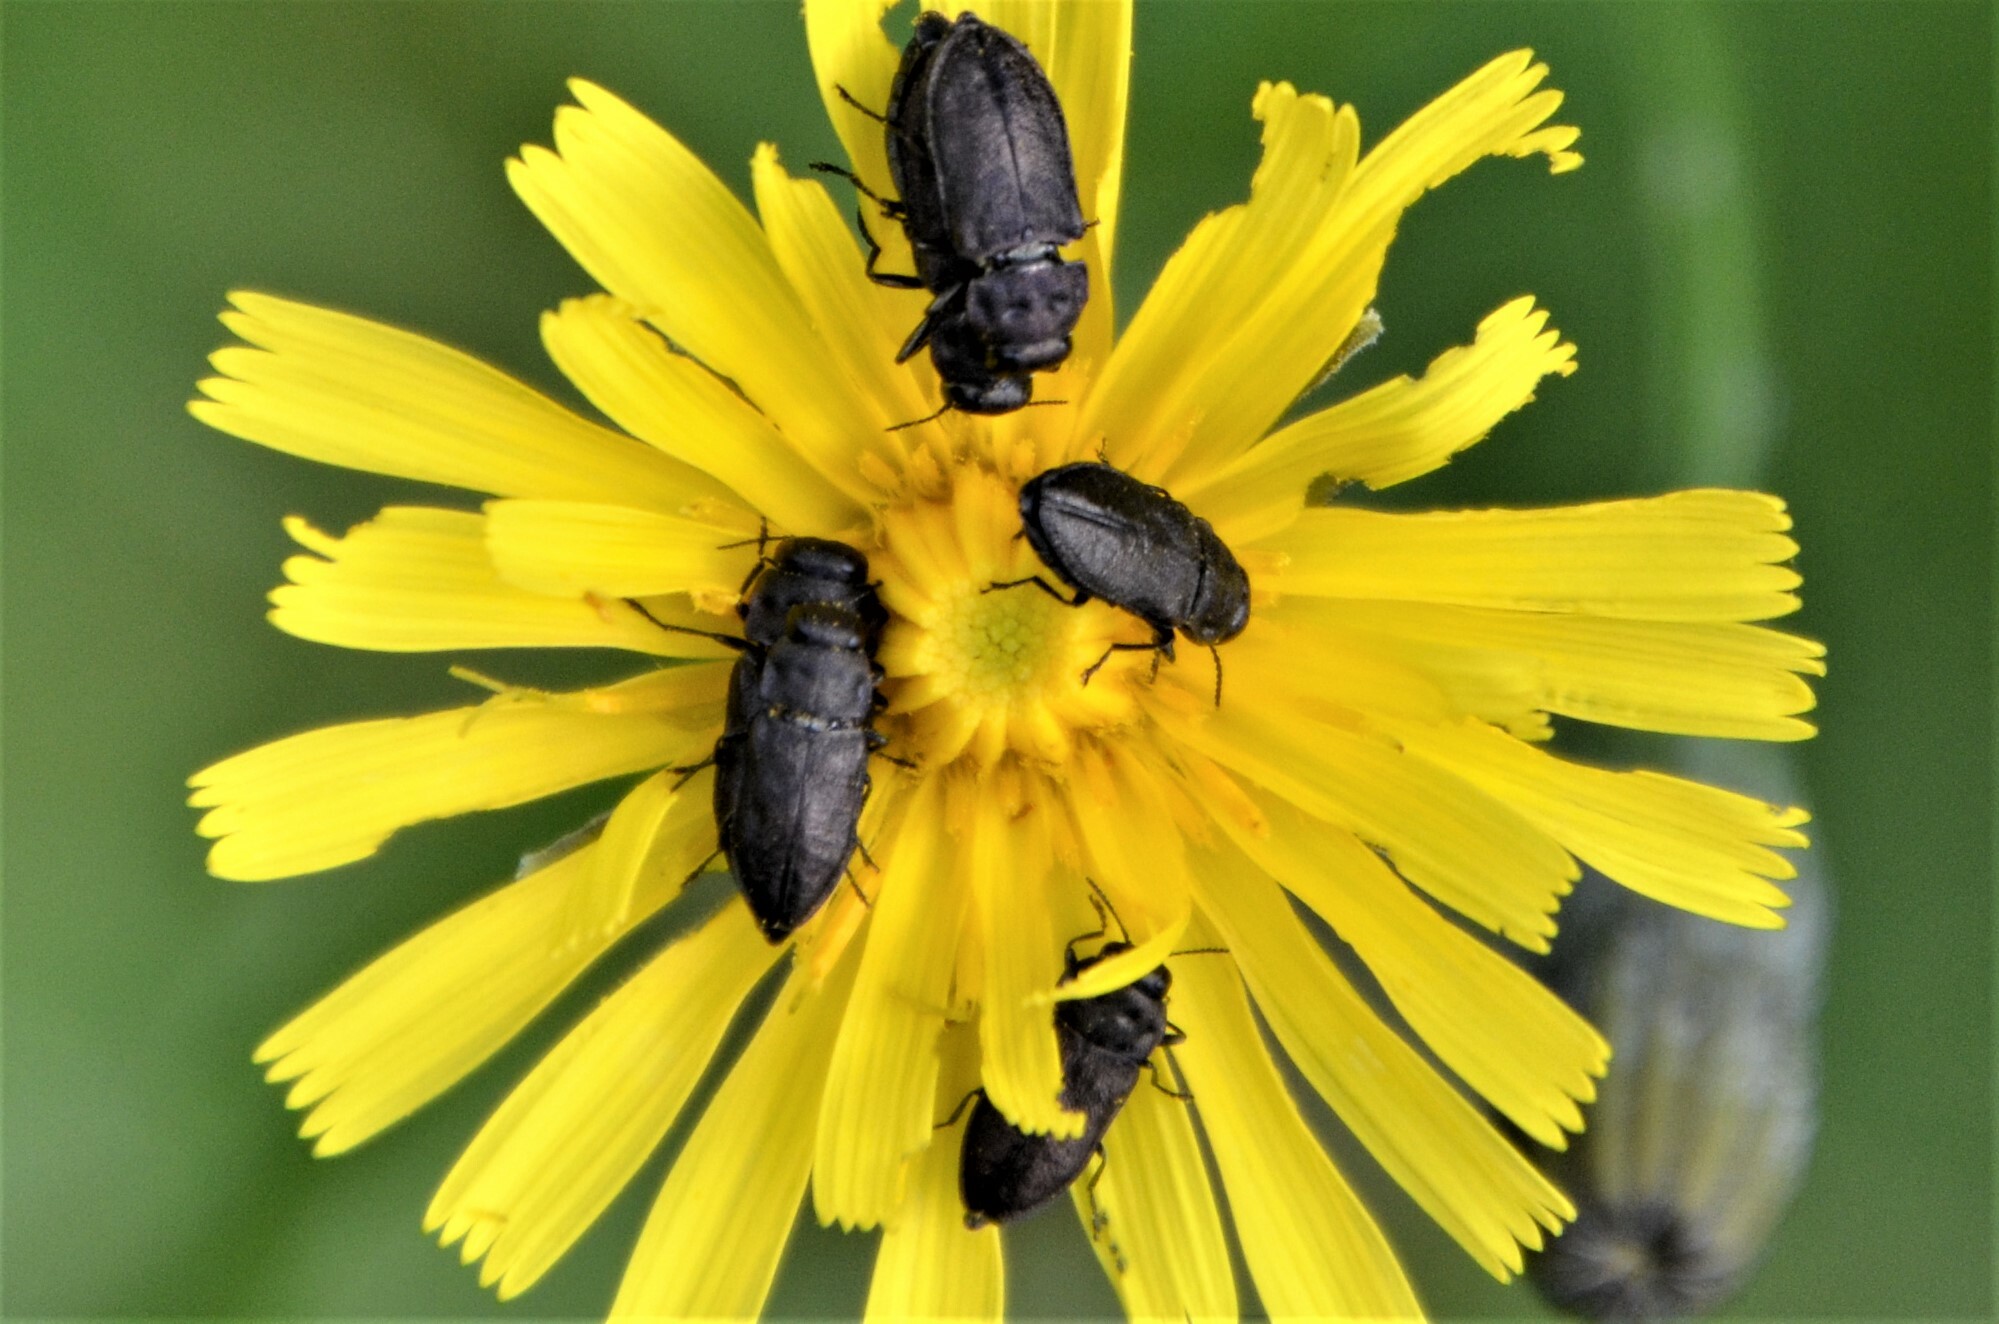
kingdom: Animalia
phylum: Arthropoda
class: Insecta
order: Coleoptera
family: Buprestidae
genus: Anthaxia
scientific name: Anthaxia quadripunctata
